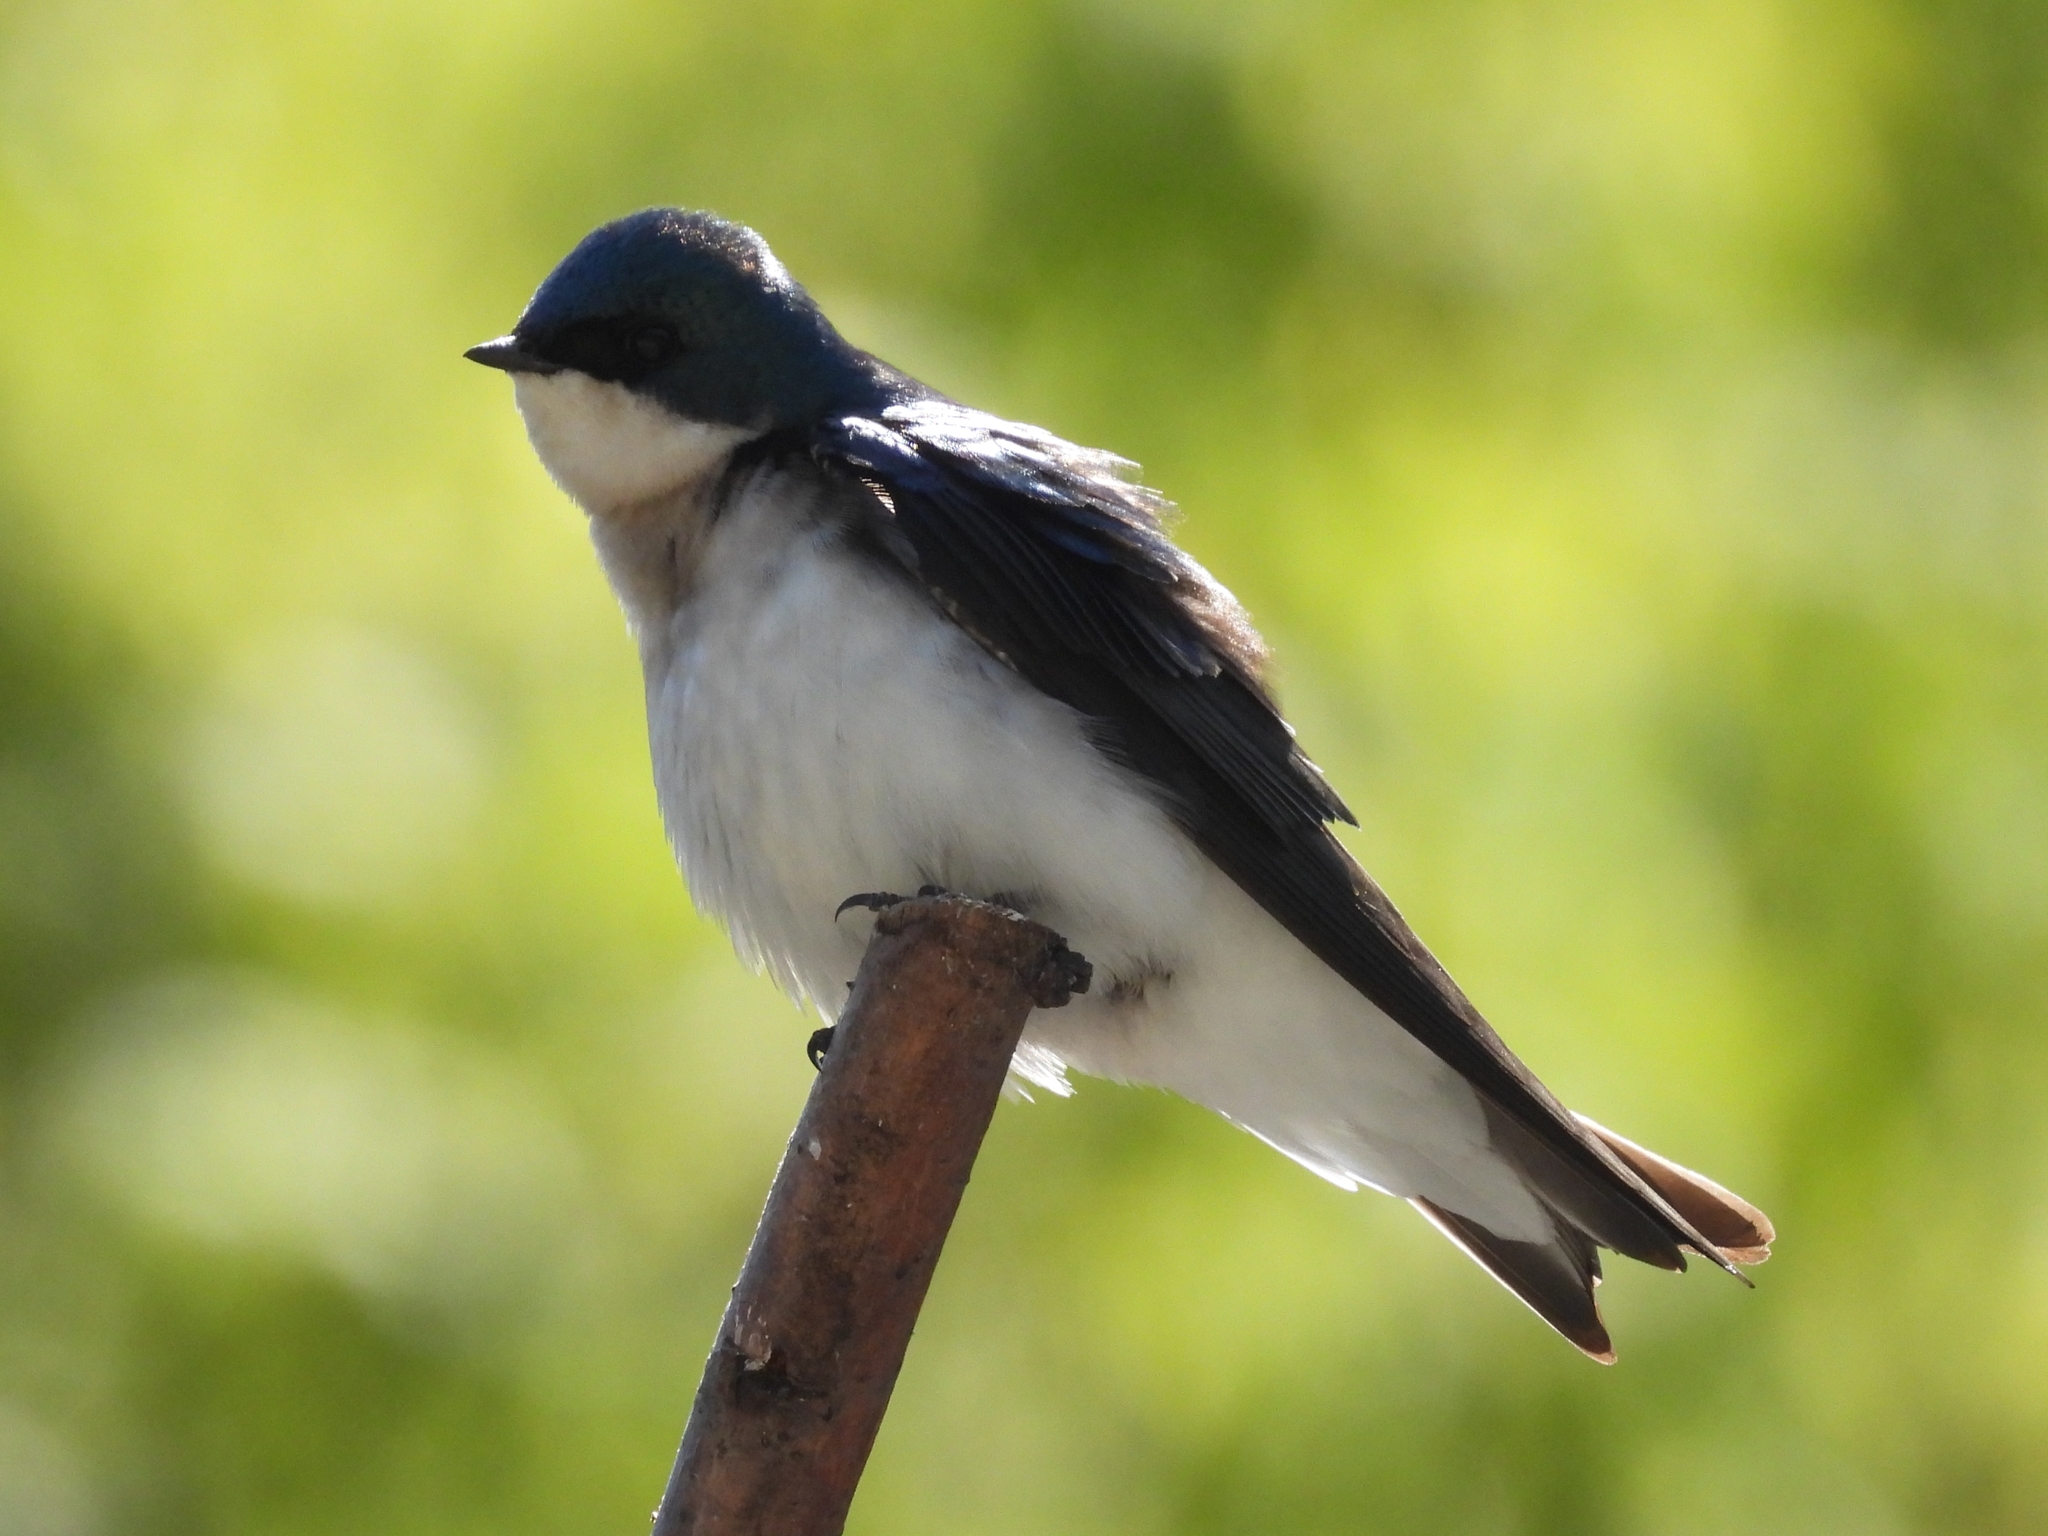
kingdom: Animalia
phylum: Chordata
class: Aves
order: Passeriformes
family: Hirundinidae
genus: Tachycineta
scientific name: Tachycineta bicolor
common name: Tree swallow
